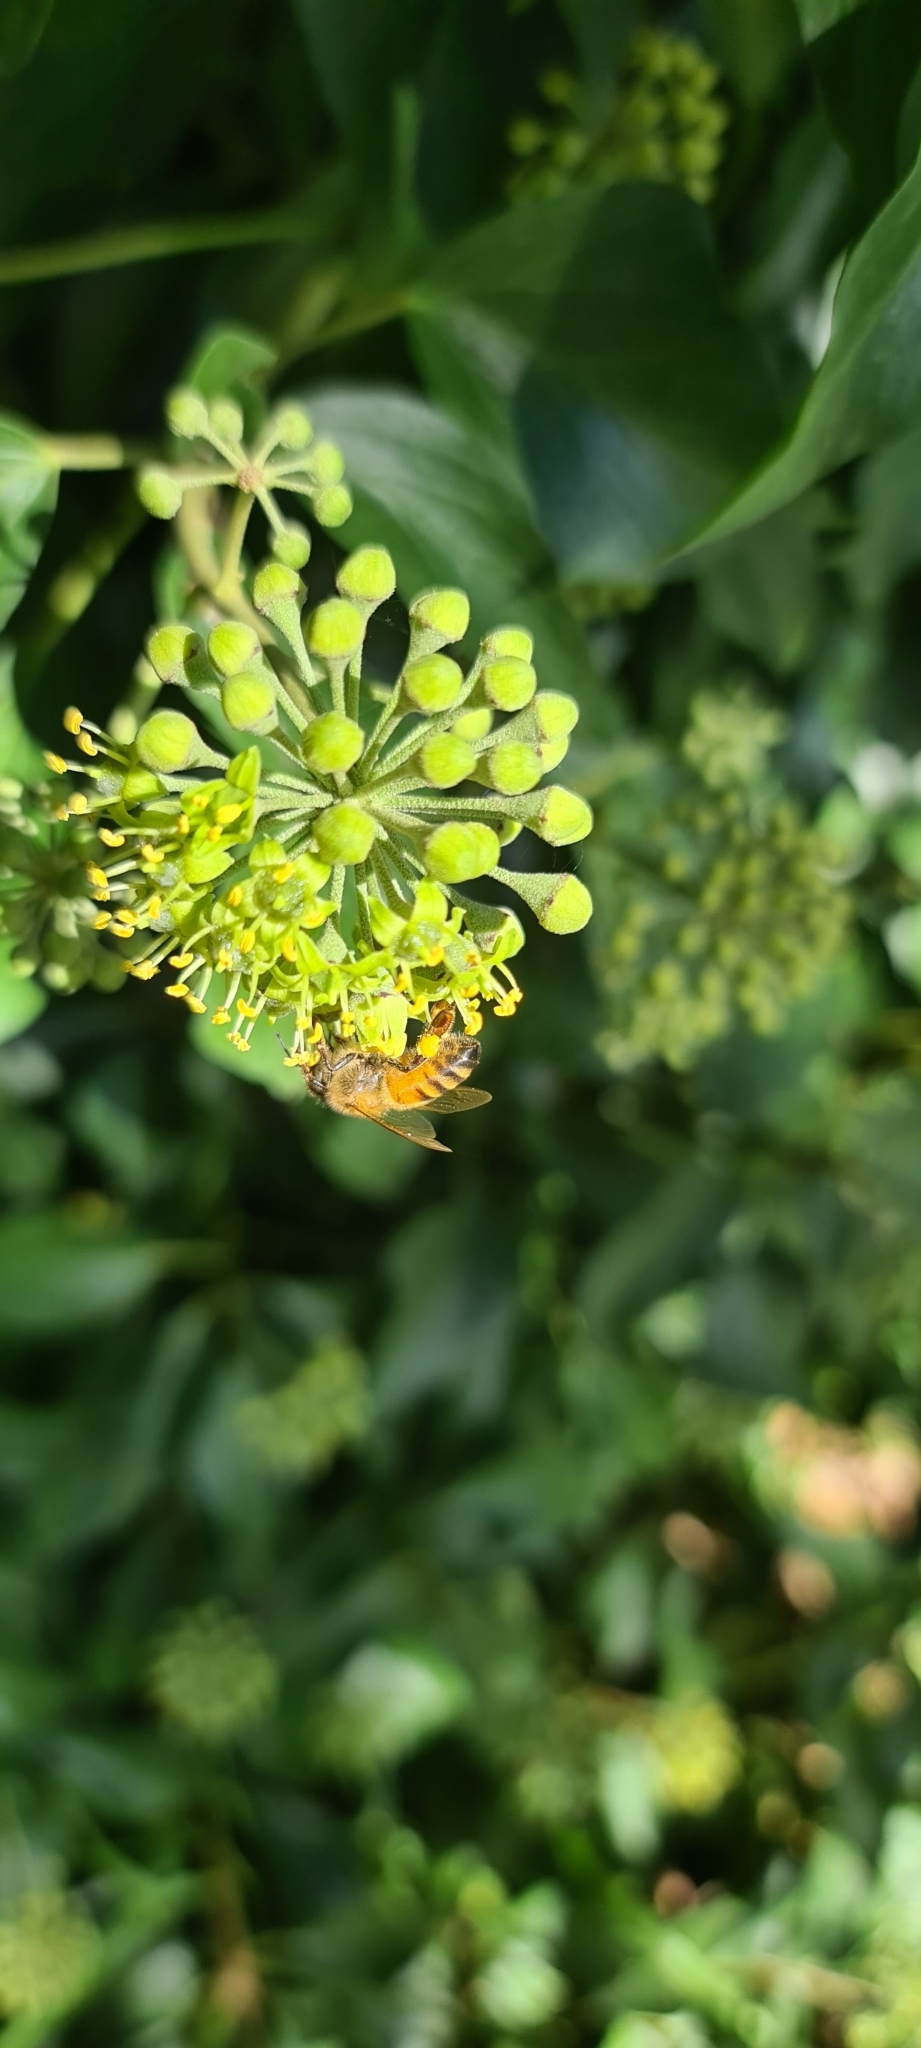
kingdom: Animalia
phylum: Arthropoda
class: Insecta
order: Hymenoptera
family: Colletidae
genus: Colletes
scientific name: Colletes hederae
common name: Ivy bee
